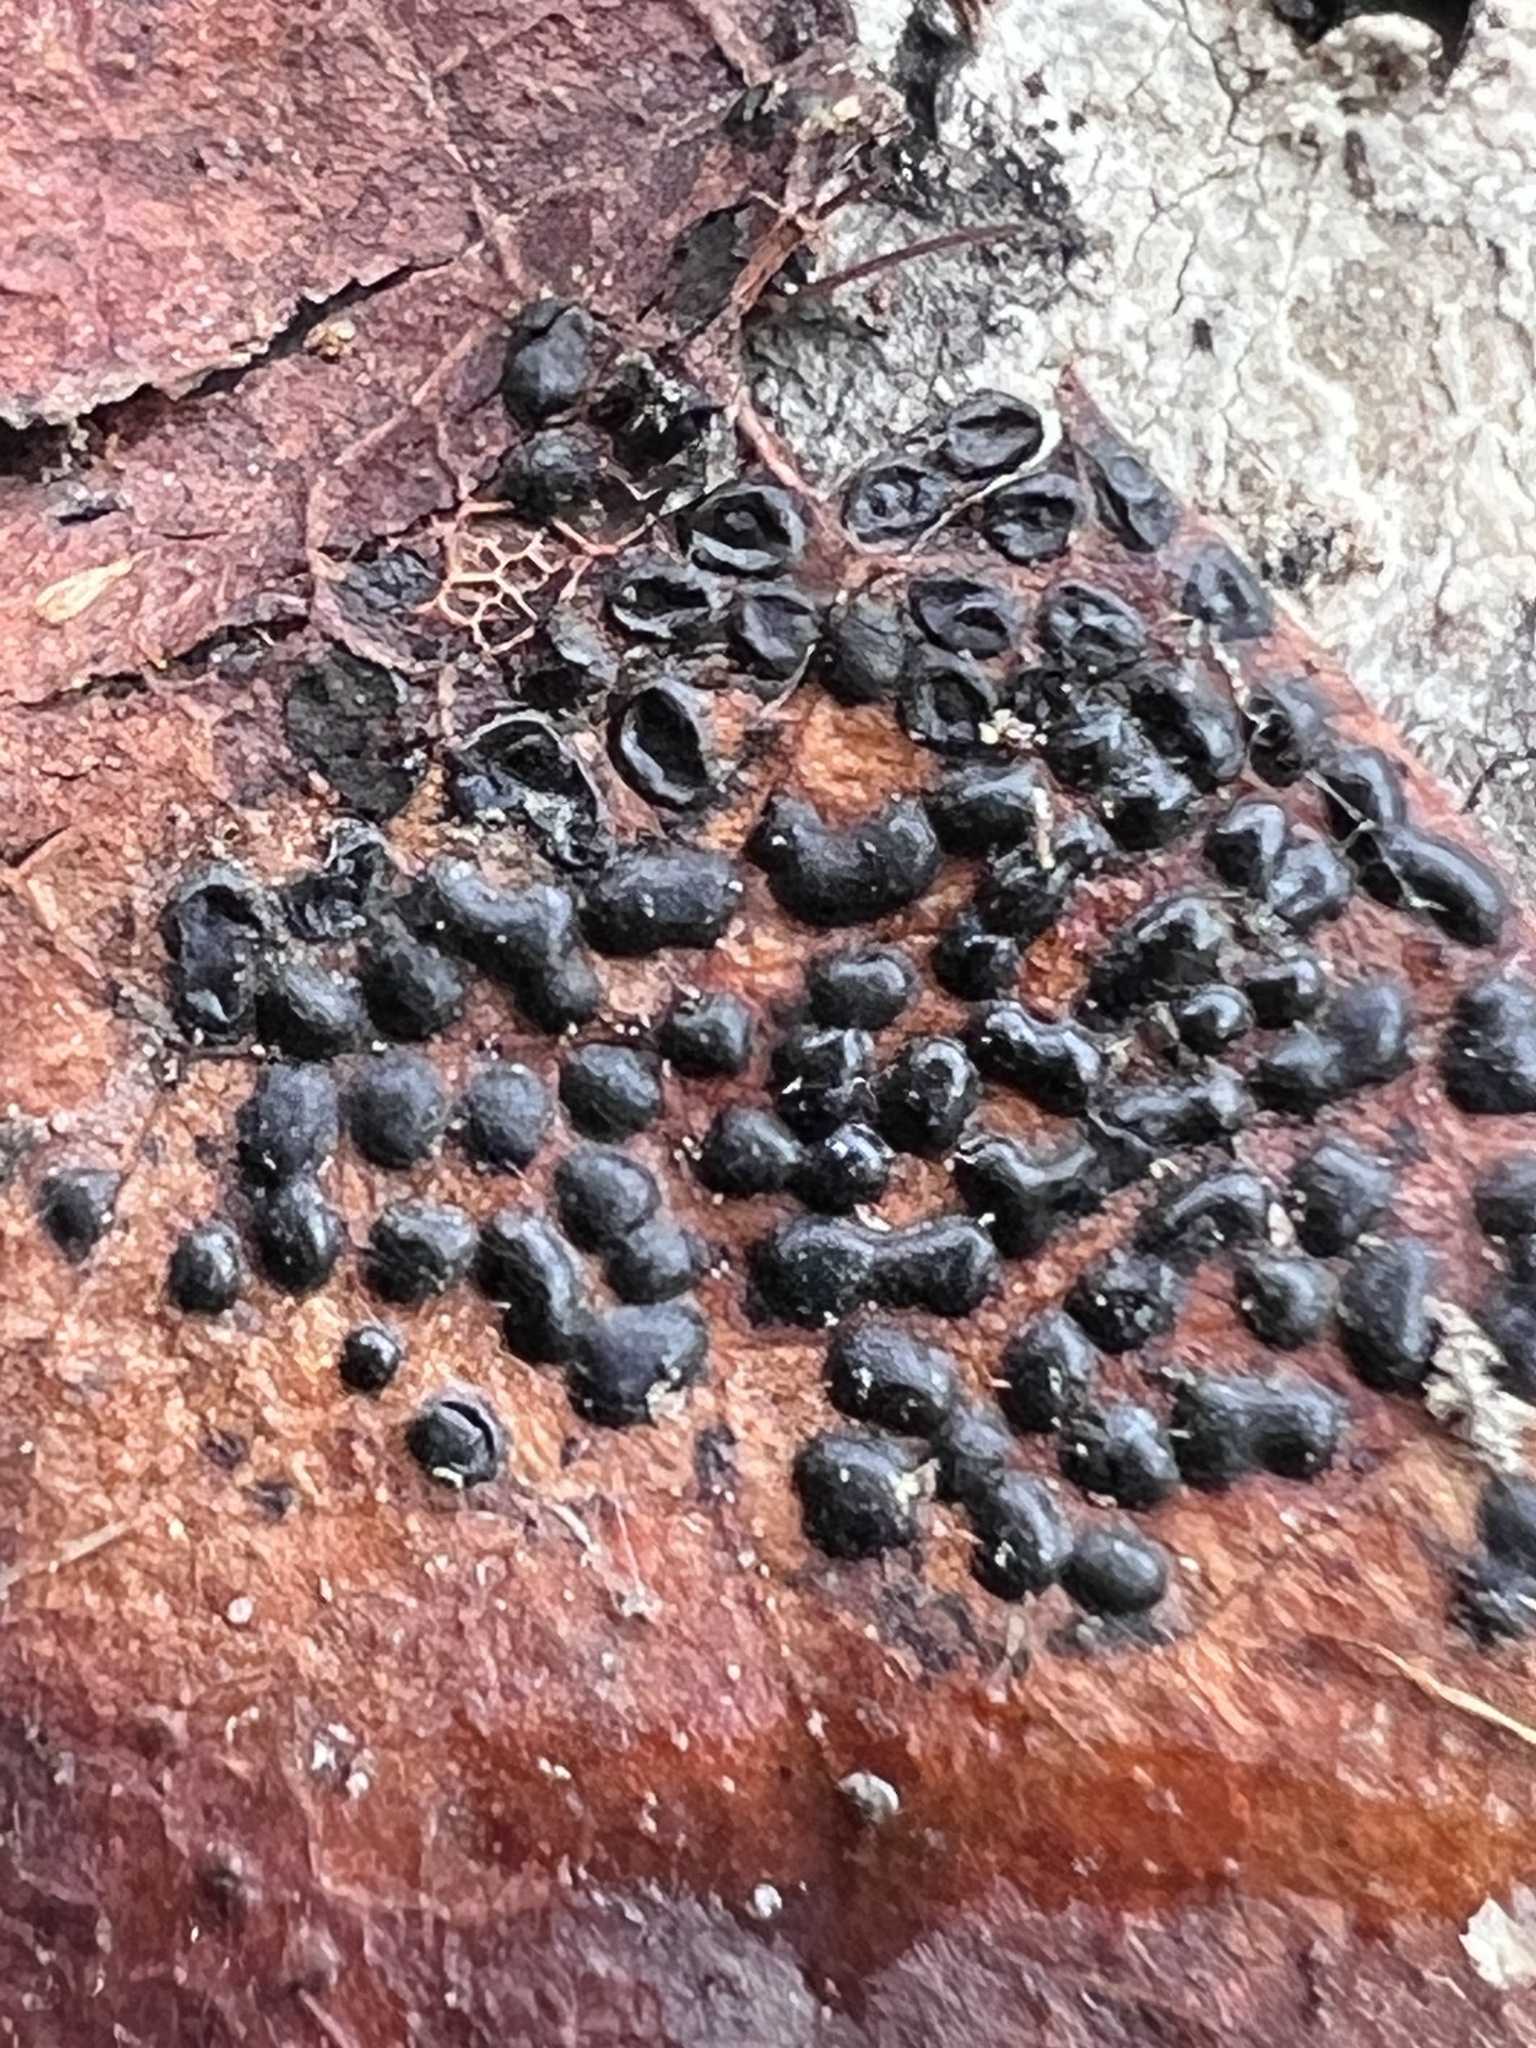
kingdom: Fungi
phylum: Ascomycota
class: Leotiomycetes
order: Rhytismatales
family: Rhytismataceae
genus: Rhytisma
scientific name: Rhytisma punctatum
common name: Speckled tar spot
